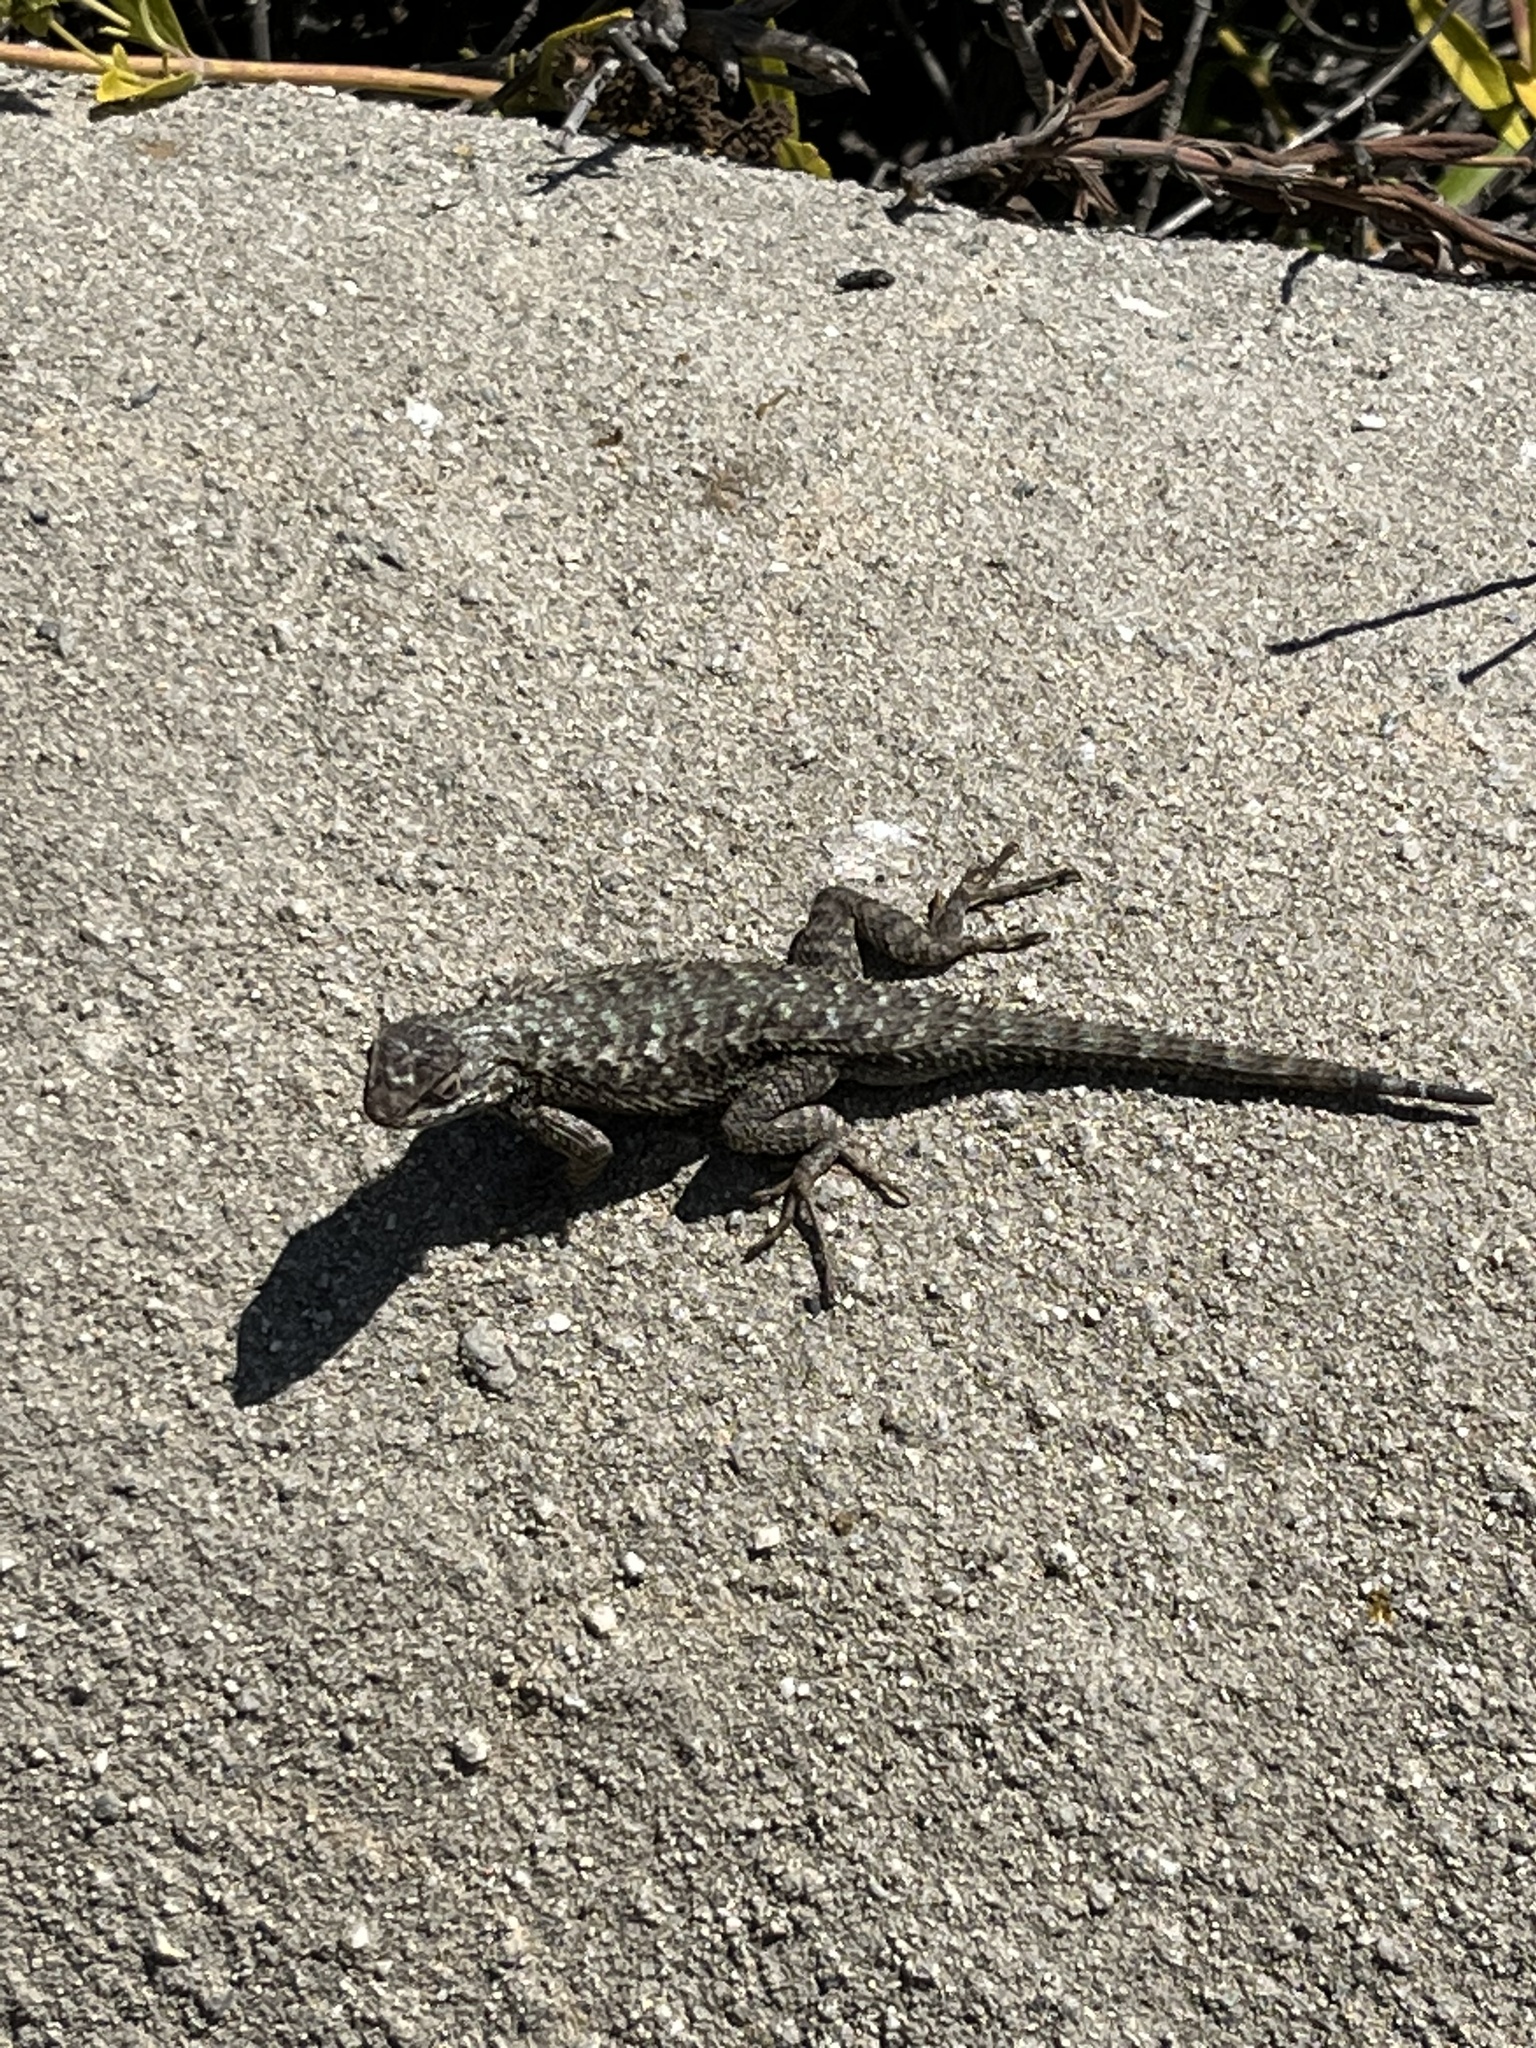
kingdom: Animalia
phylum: Chordata
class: Squamata
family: Phrynosomatidae
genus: Sceloporus
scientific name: Sceloporus occidentalis
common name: Western fence lizard
